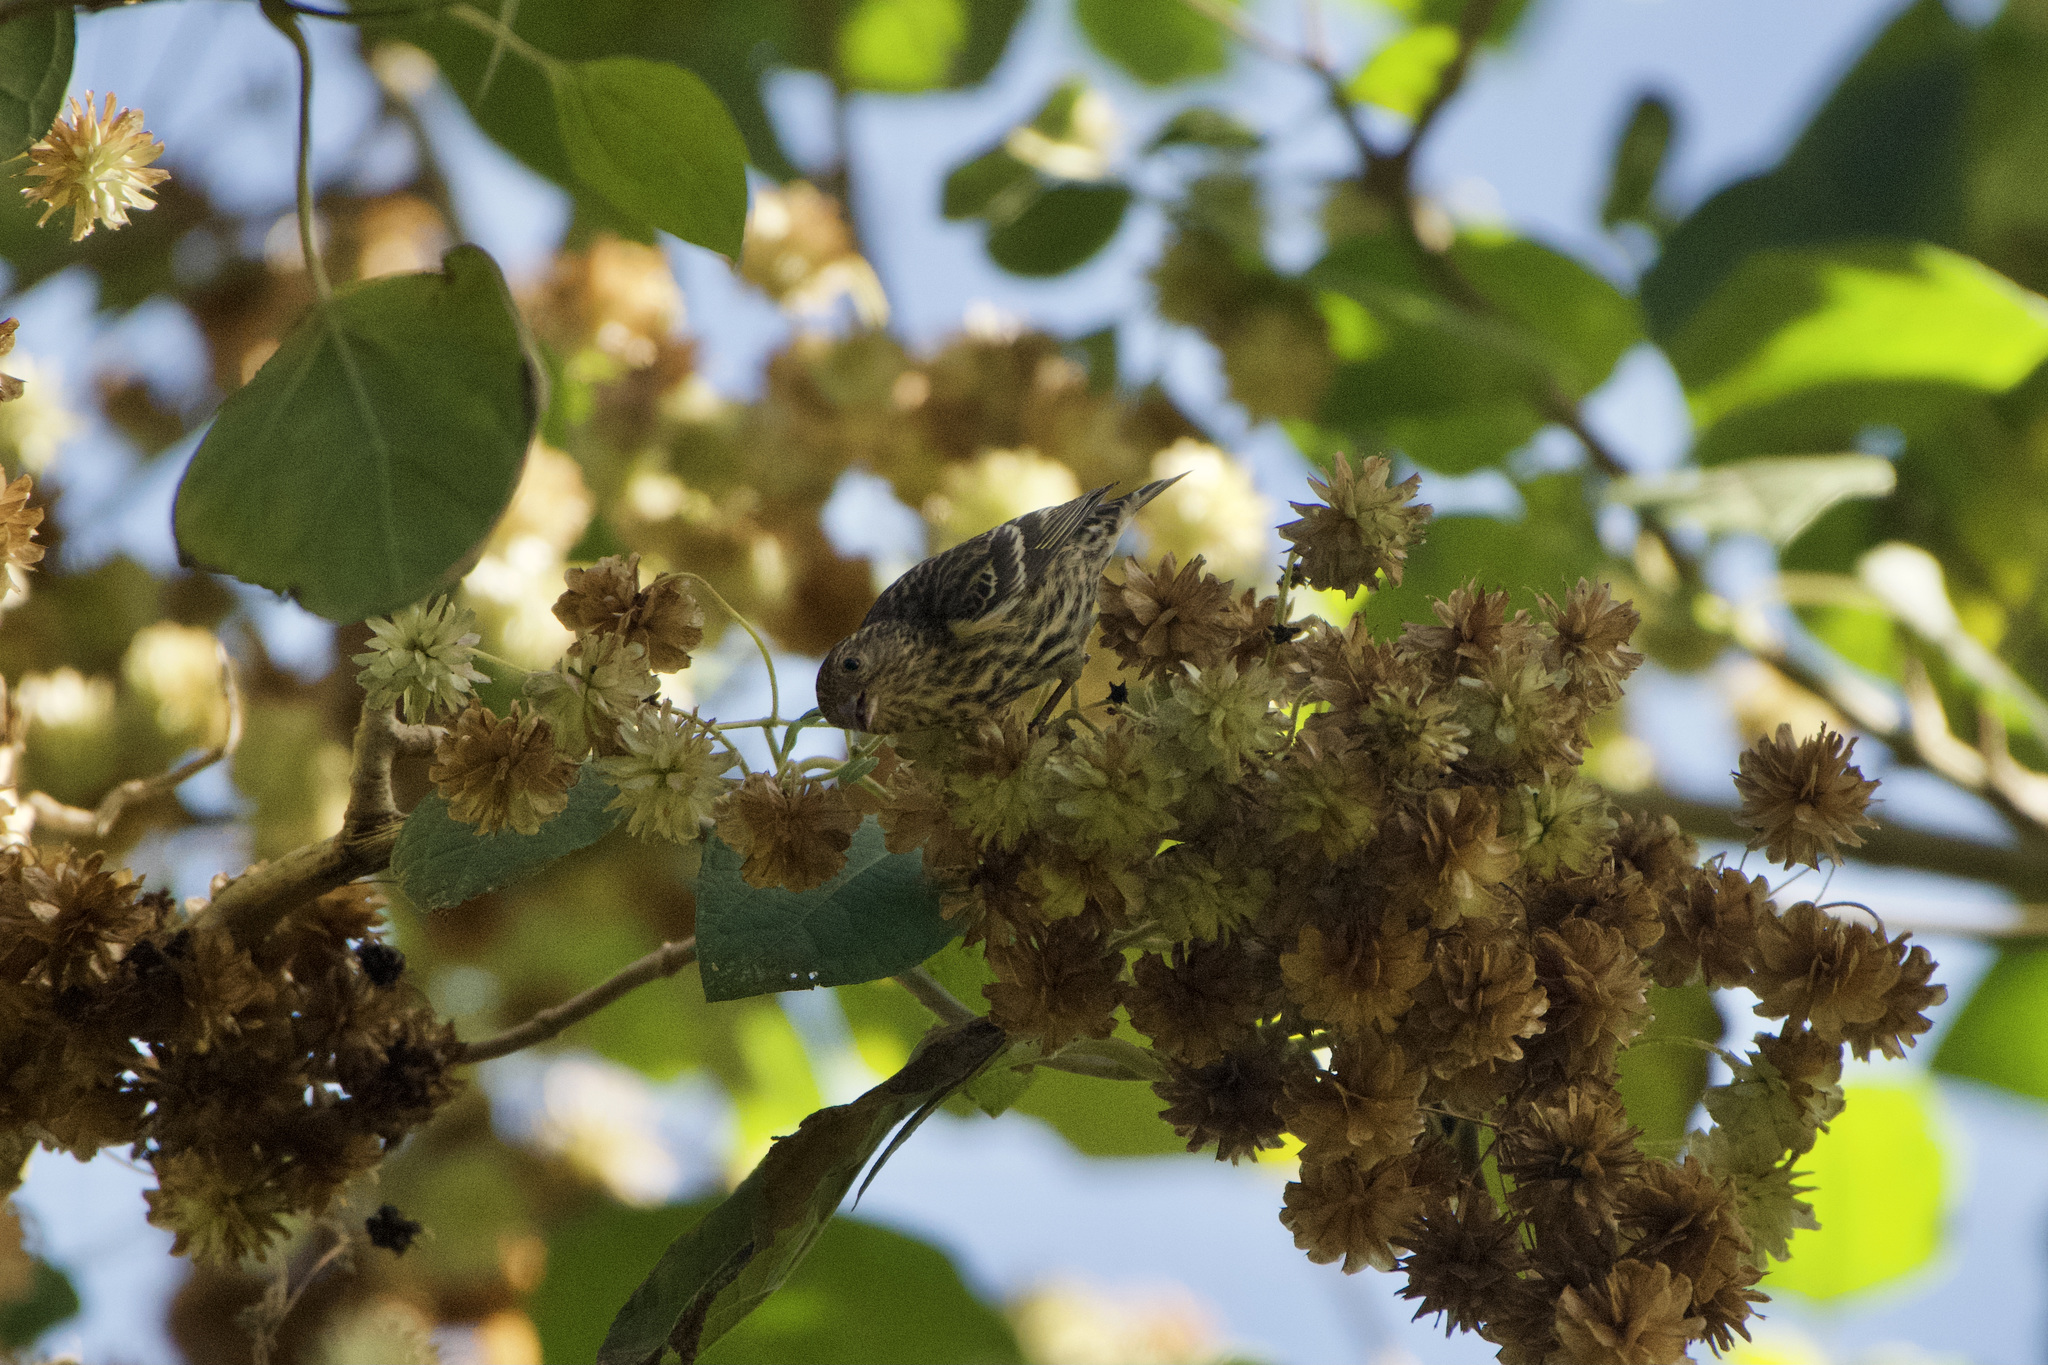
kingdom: Animalia
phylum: Chordata
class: Aves
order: Passeriformes
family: Fringillidae
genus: Spinus
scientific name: Spinus pinus
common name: Pine siskin
